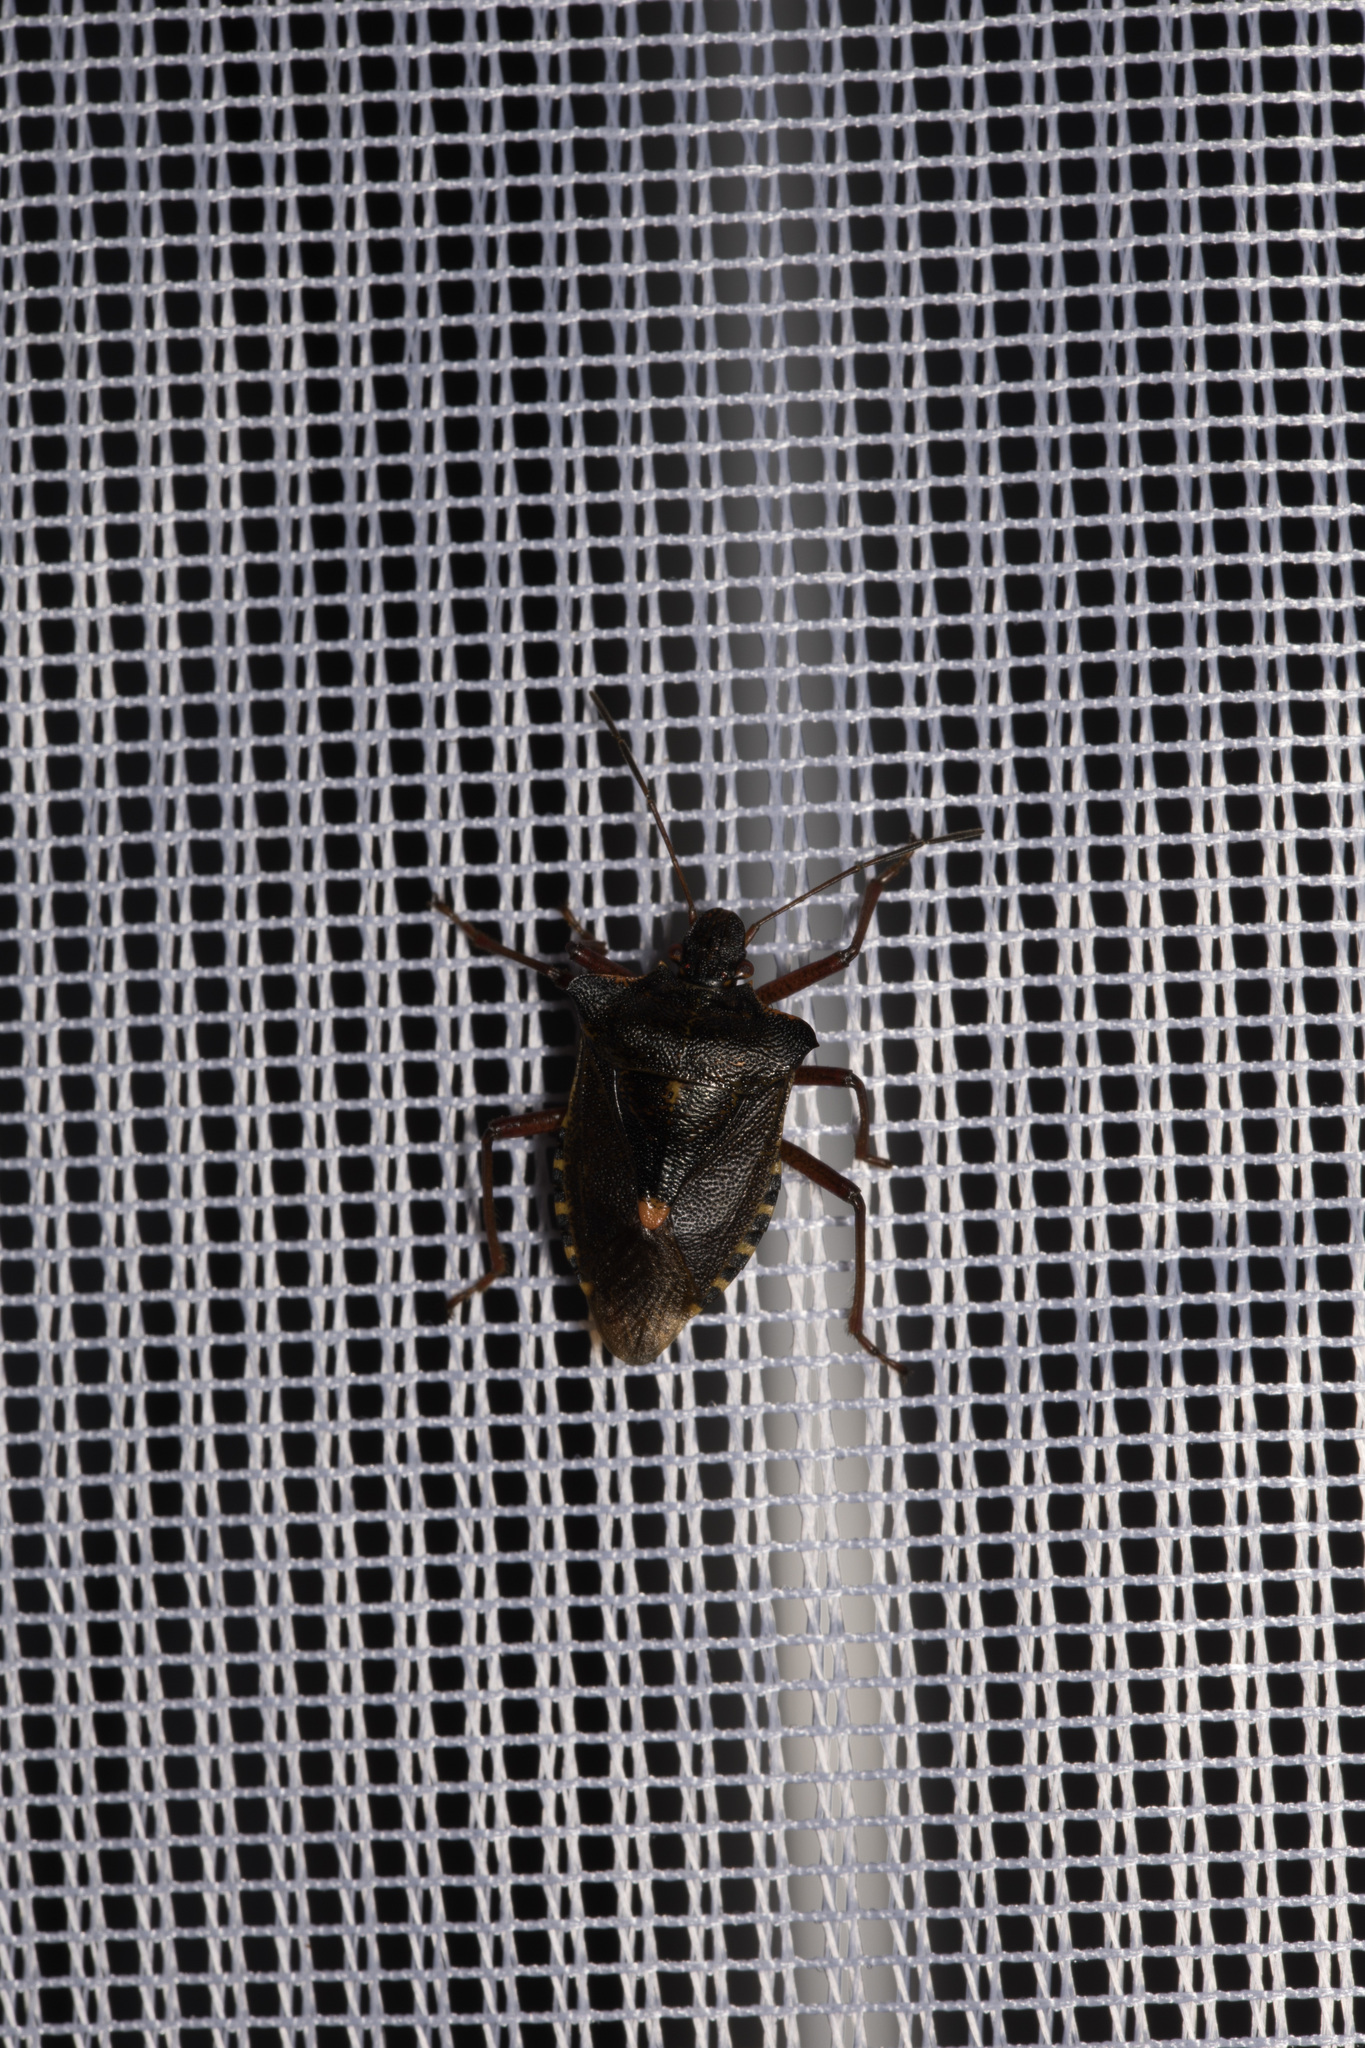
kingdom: Animalia
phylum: Arthropoda
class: Insecta
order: Hemiptera
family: Pentatomidae
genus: Pentatoma
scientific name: Pentatoma rufipes
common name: Forest bug
